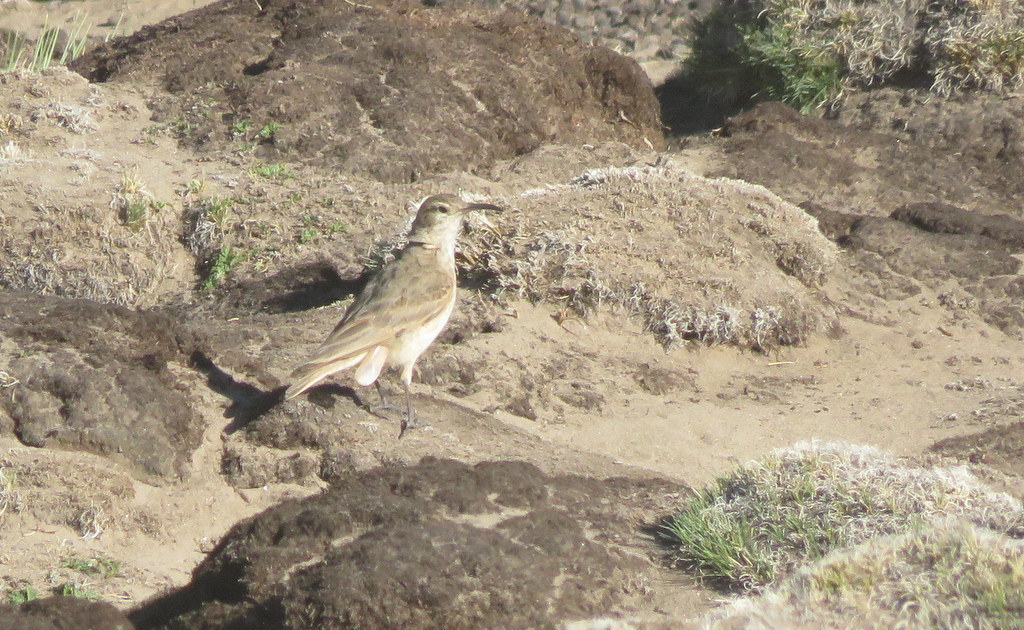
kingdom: Animalia
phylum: Chordata
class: Aves
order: Passeriformes
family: Furnariidae
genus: Geositta
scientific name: Geositta tenuirostris
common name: Slender-billed miner
